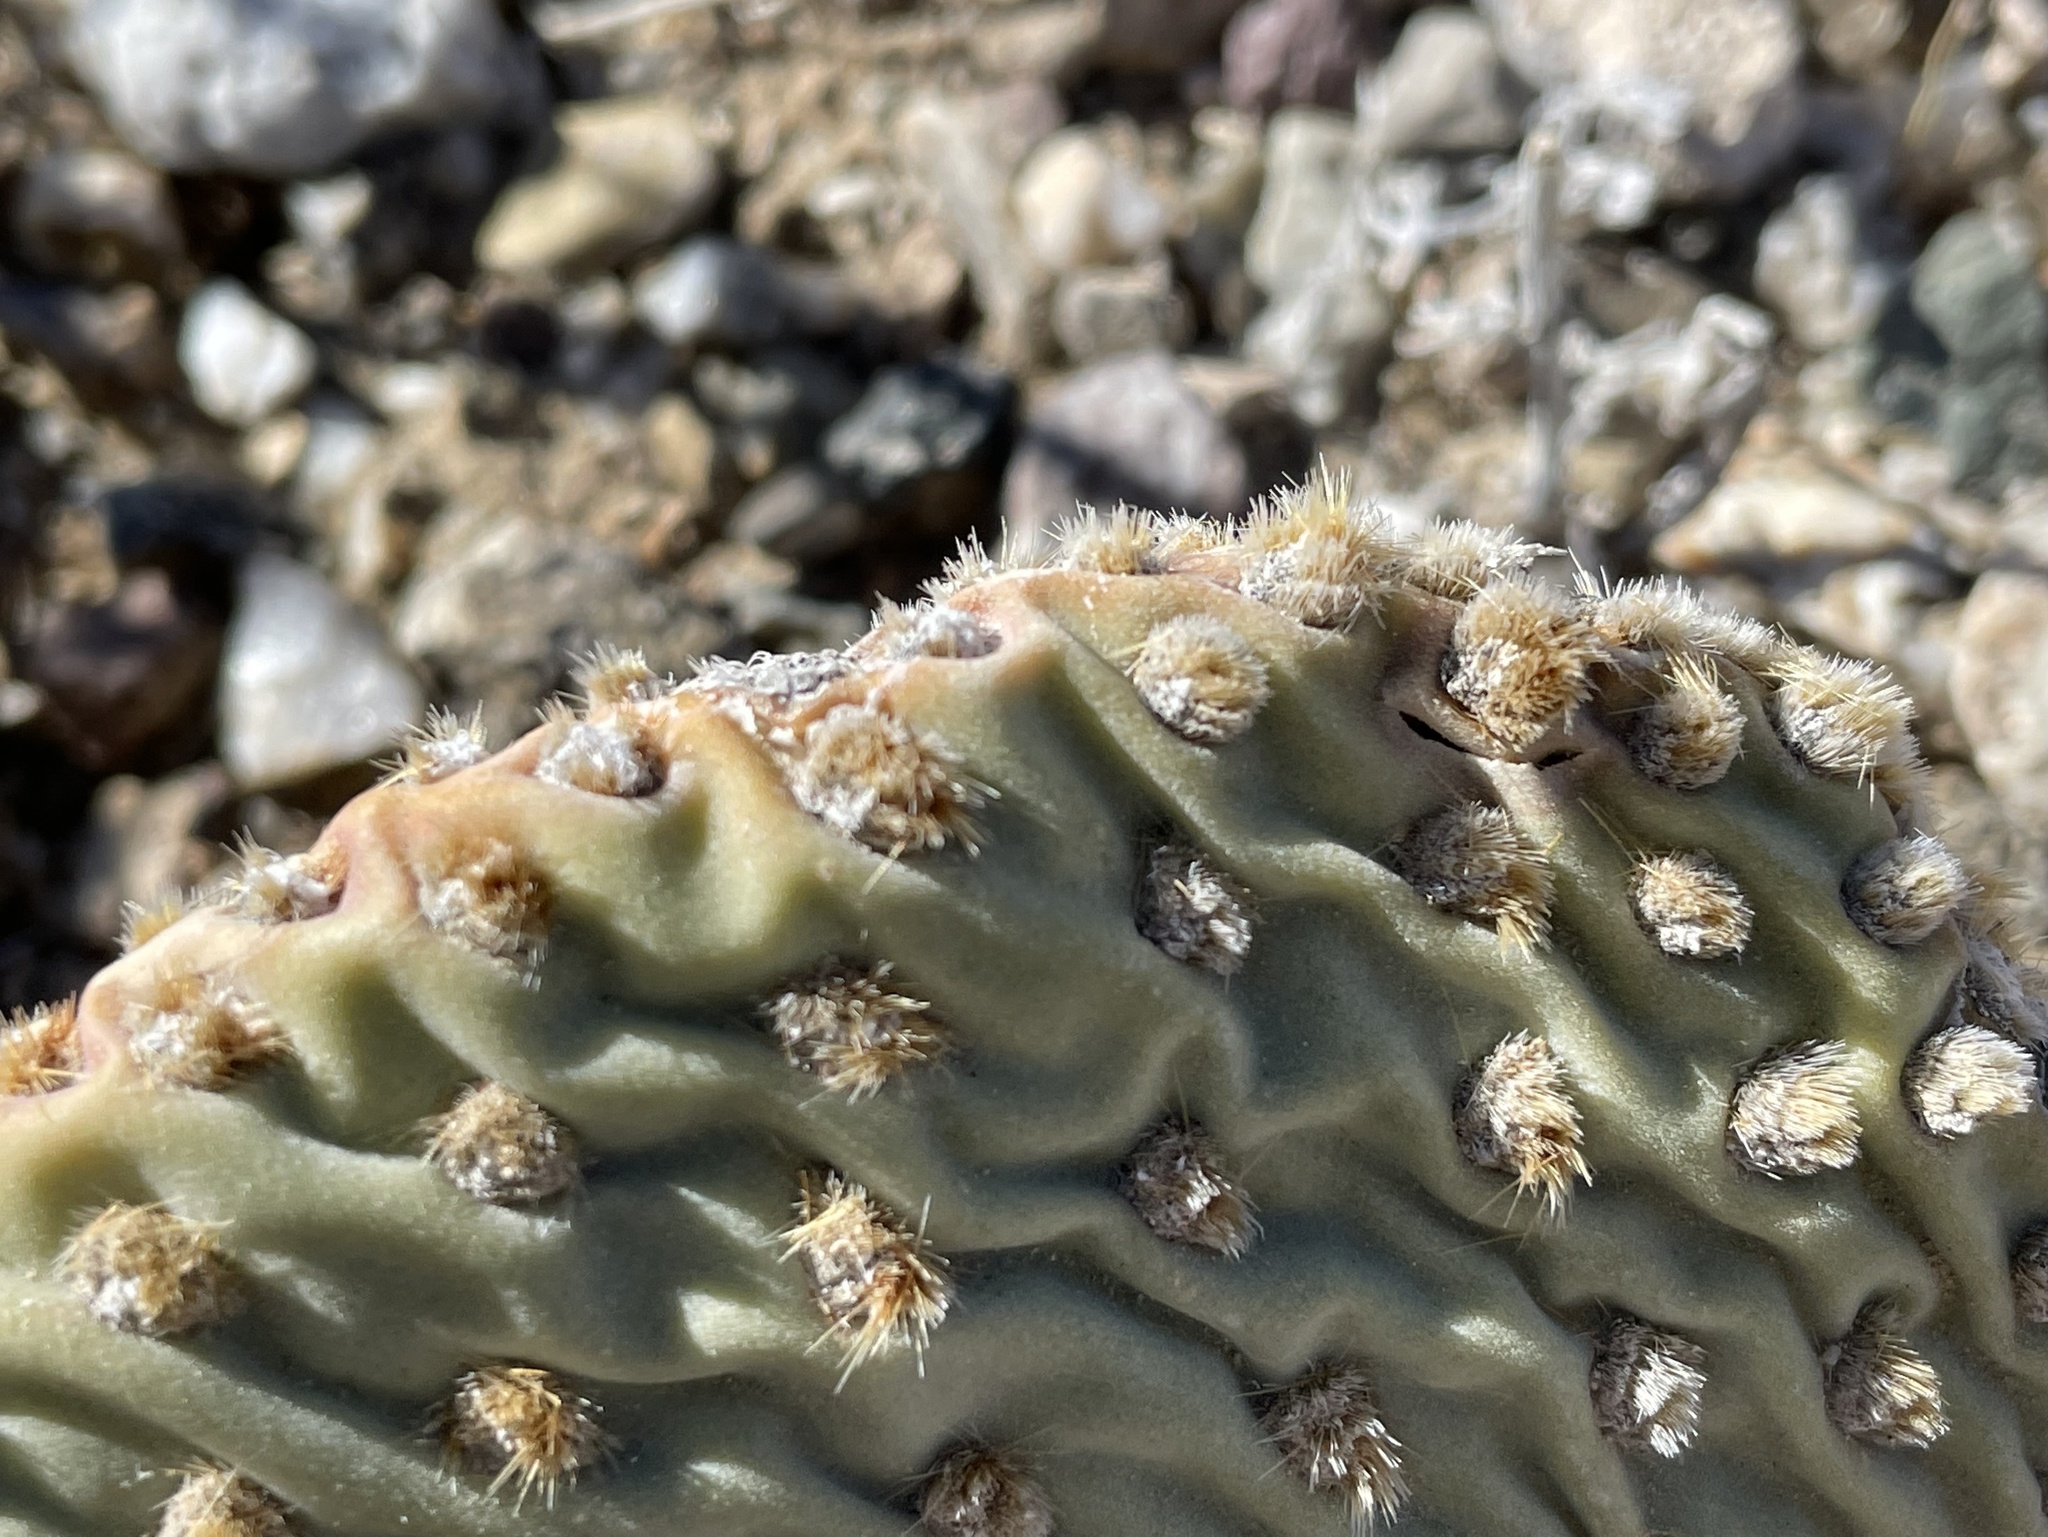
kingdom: Plantae
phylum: Tracheophyta
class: Magnoliopsida
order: Caryophyllales
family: Cactaceae
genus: Opuntia
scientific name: Opuntia basilaris
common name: Beavertail prickly-pear
